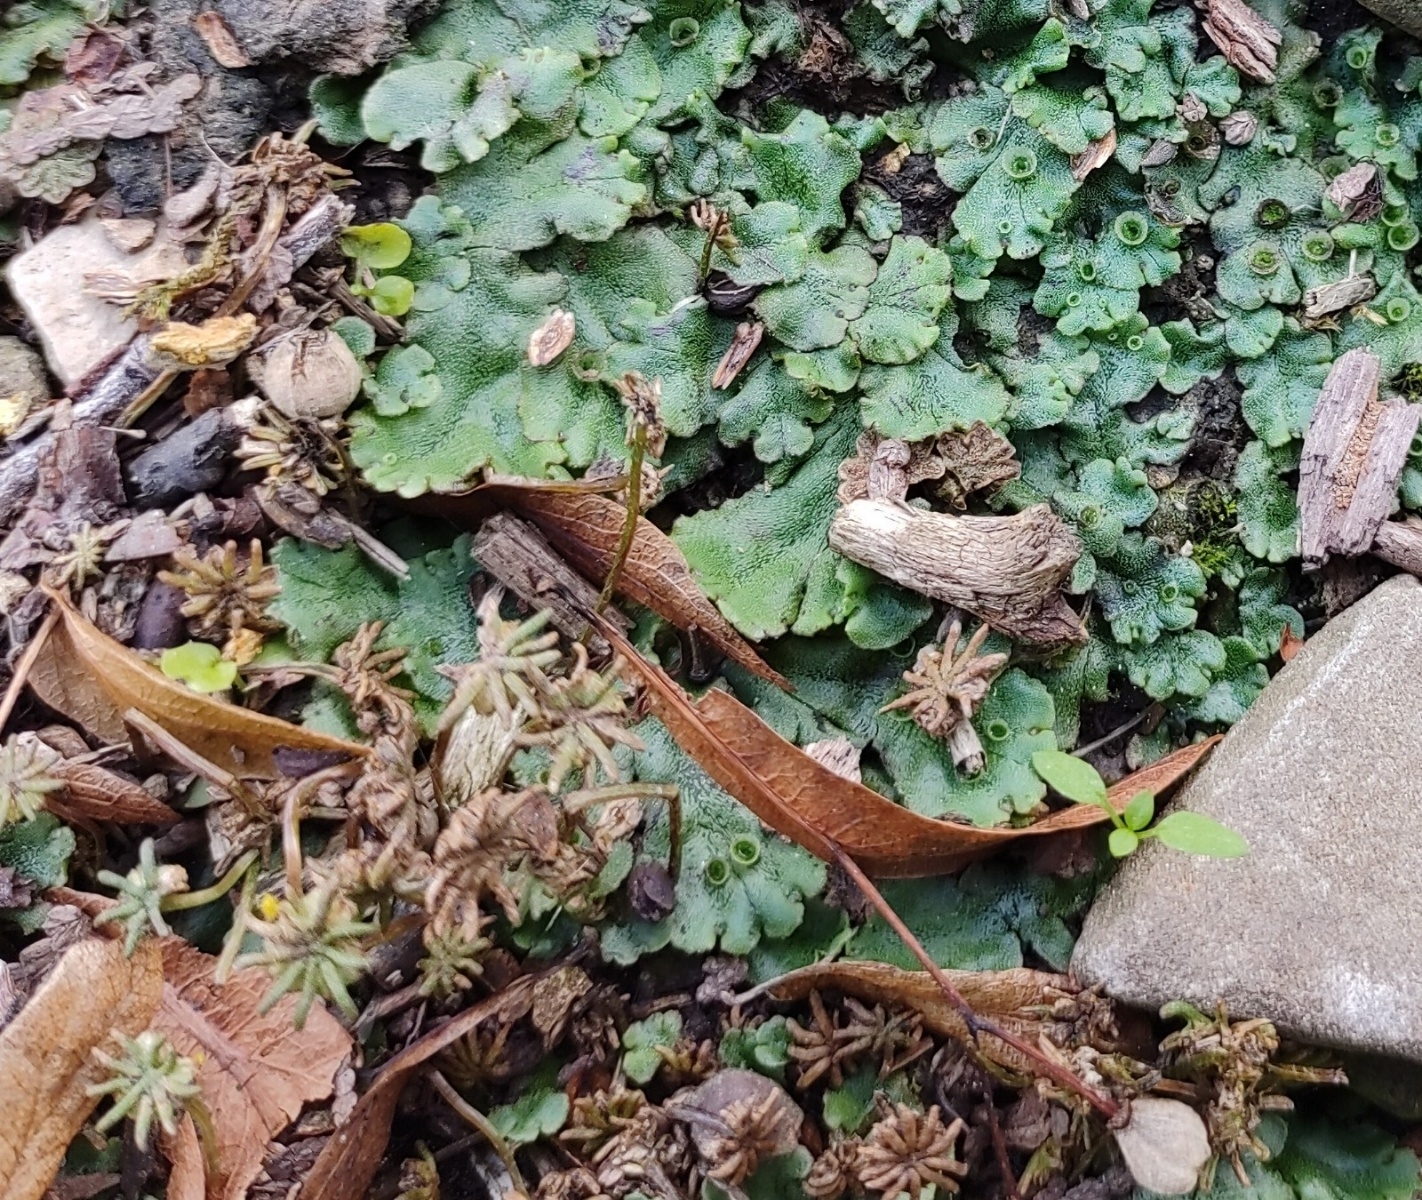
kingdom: Plantae
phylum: Marchantiophyta
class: Marchantiopsida
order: Marchantiales
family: Marchantiaceae
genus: Marchantia
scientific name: Marchantia polymorpha
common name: Common liverwort
